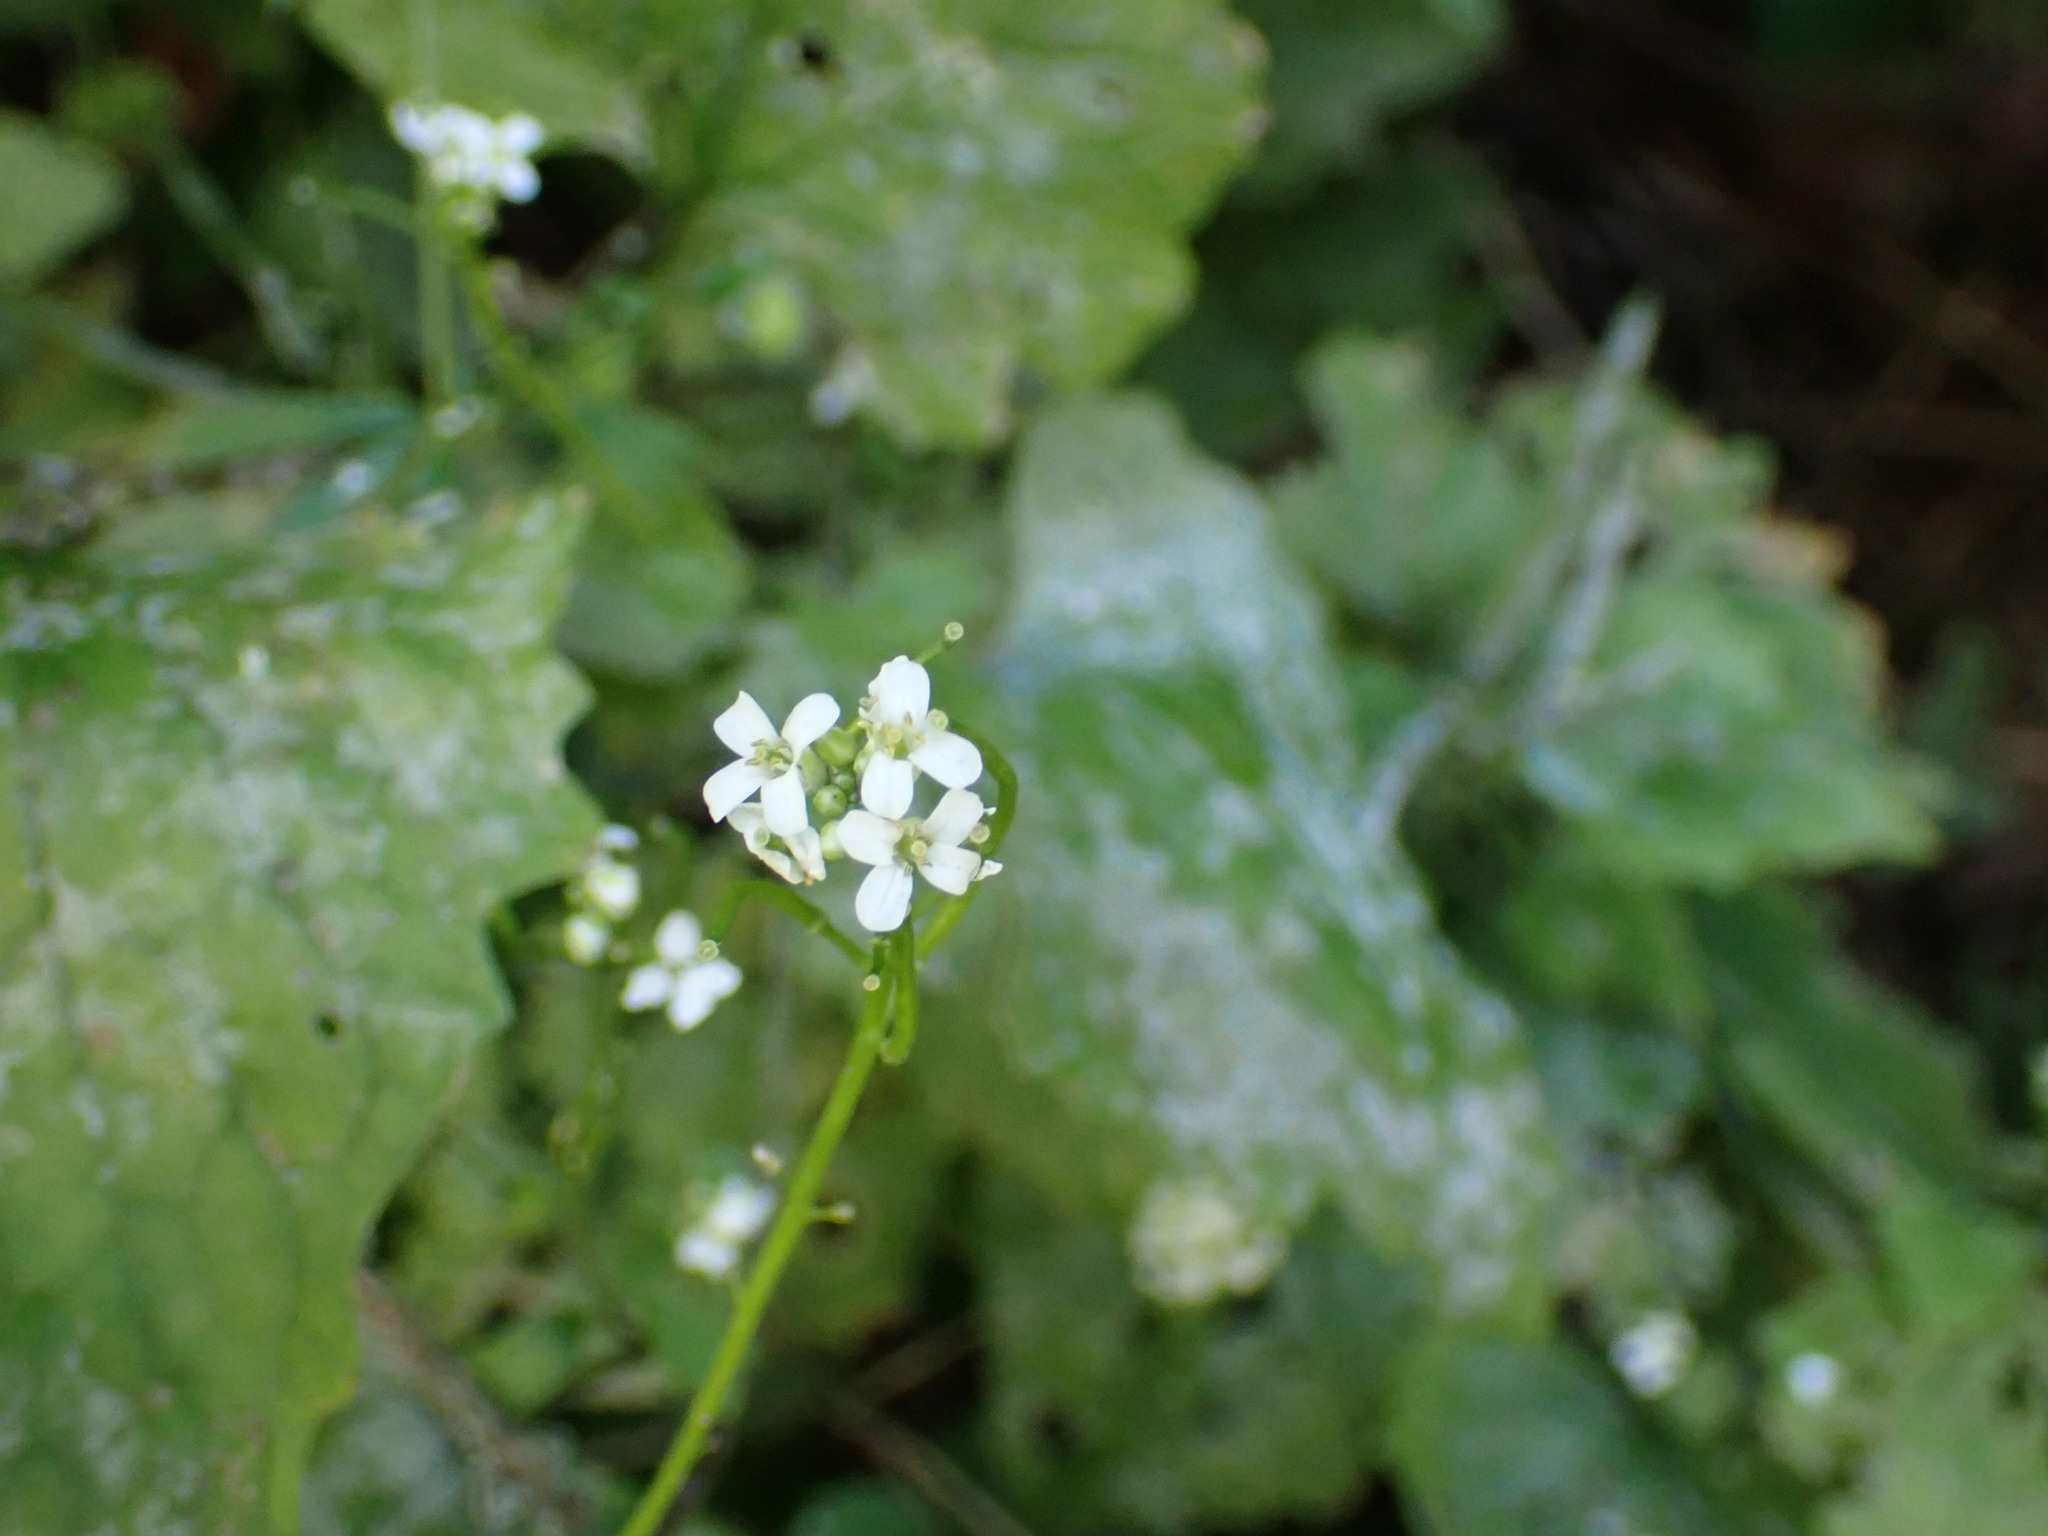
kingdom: Plantae
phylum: Tracheophyta
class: Magnoliopsida
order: Brassicales
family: Brassicaceae
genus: Alliaria
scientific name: Alliaria petiolata
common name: Garlic mustard
